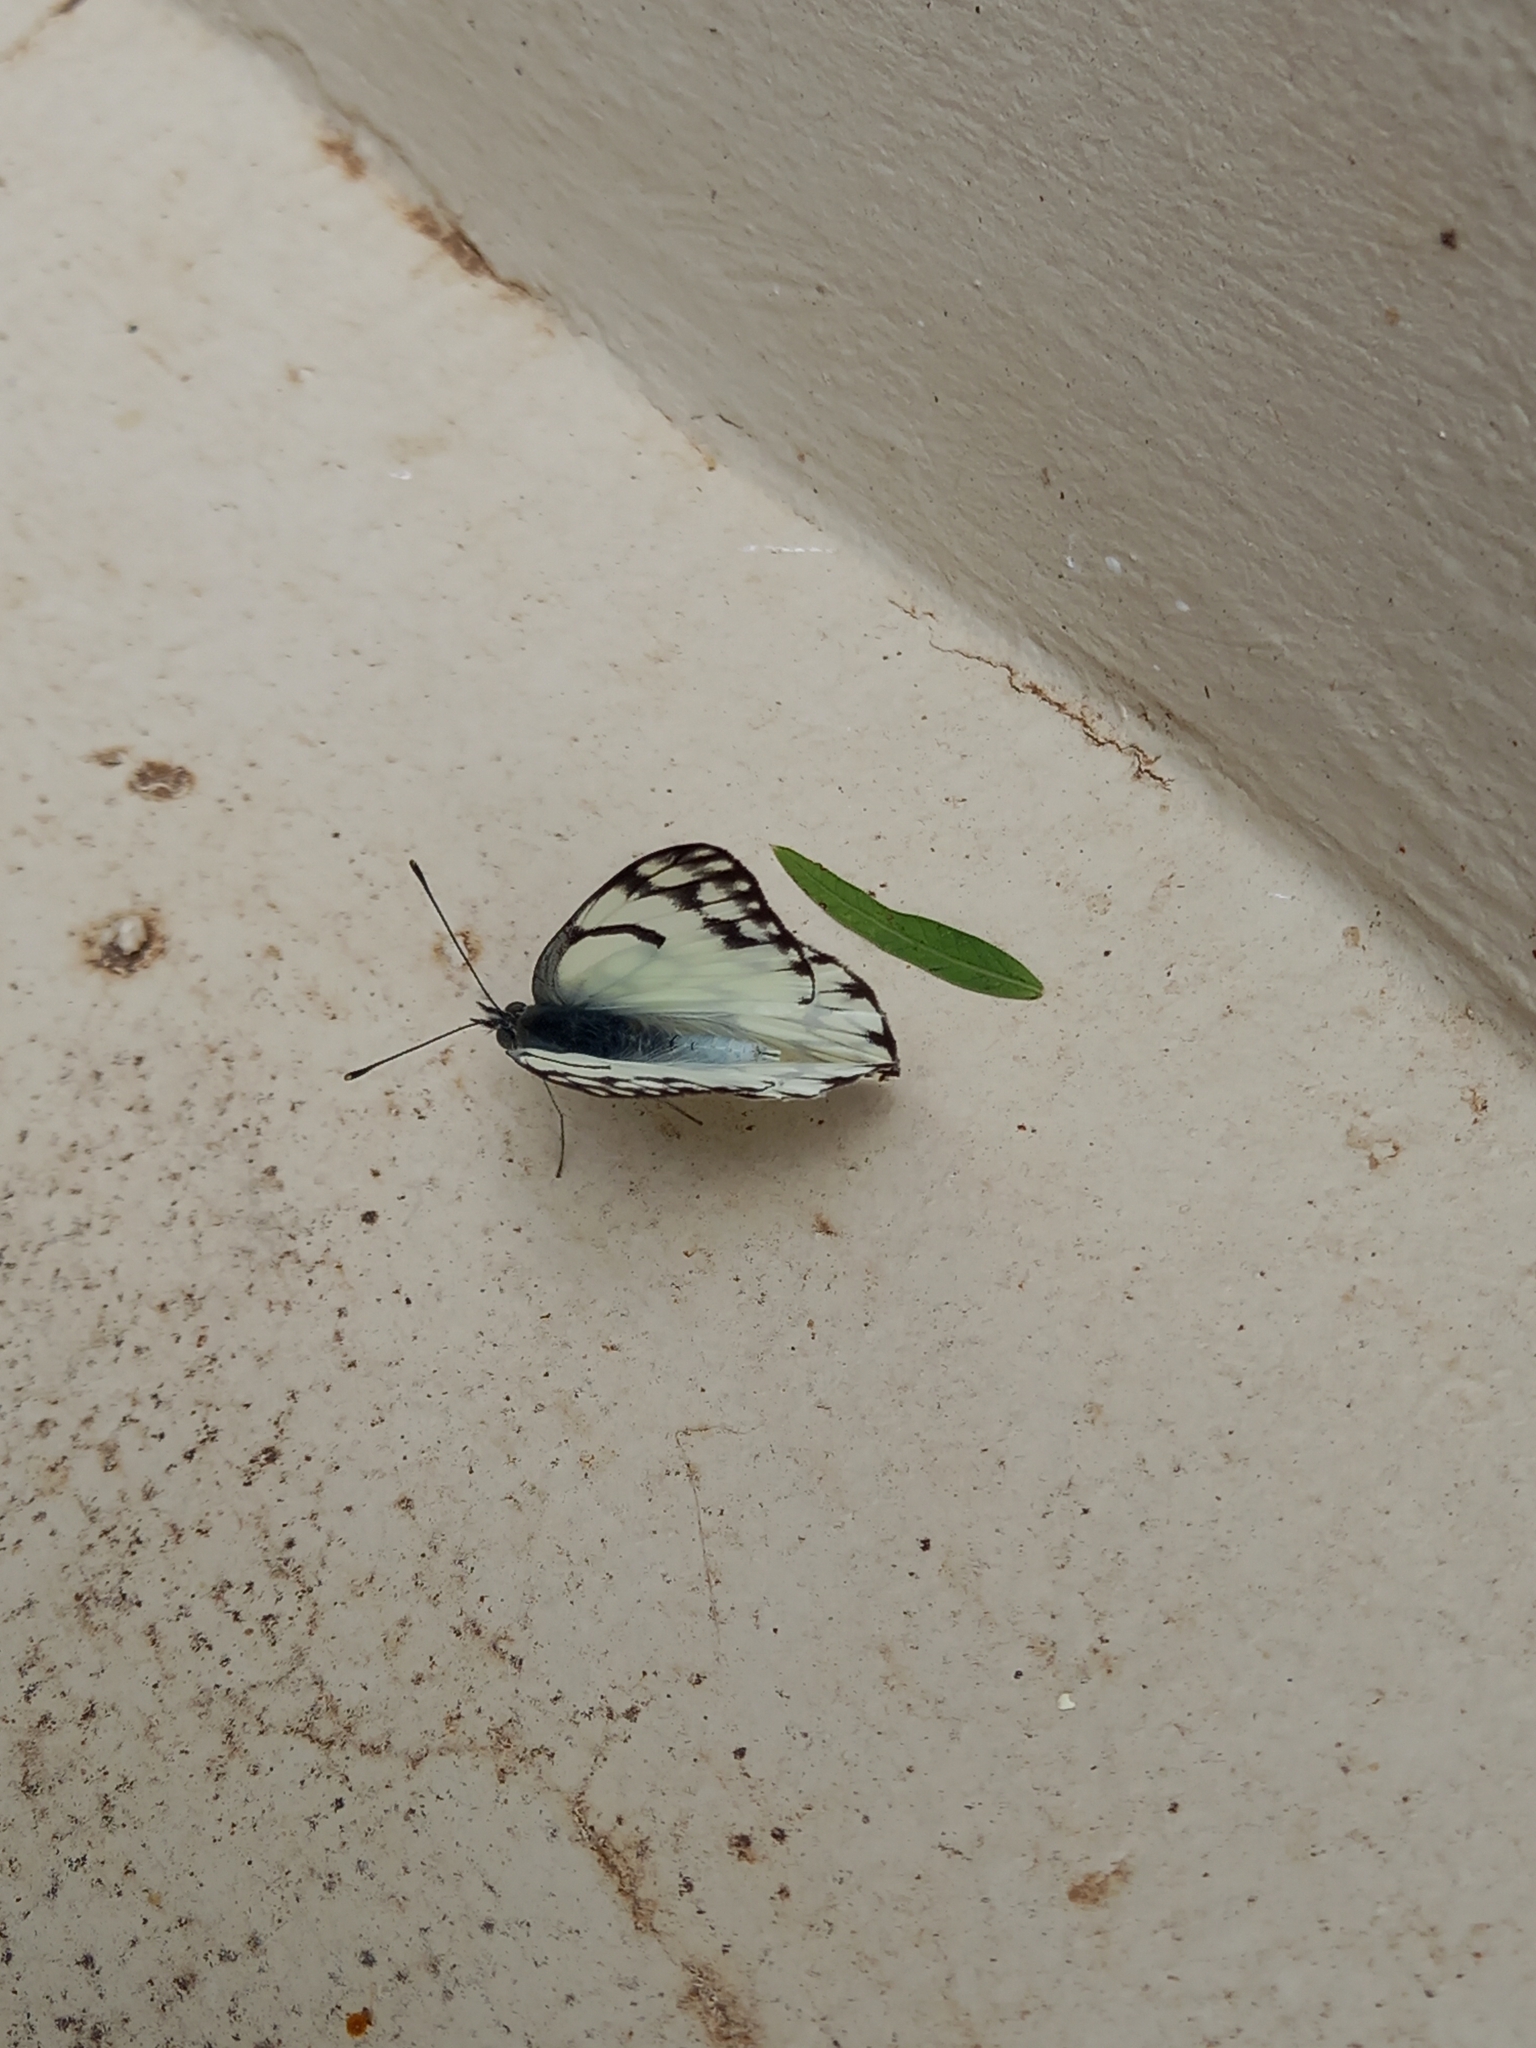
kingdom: Animalia
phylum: Arthropoda
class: Insecta
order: Lepidoptera
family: Pieridae
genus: Belenois
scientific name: Belenois gidica
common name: Pointed caper white
